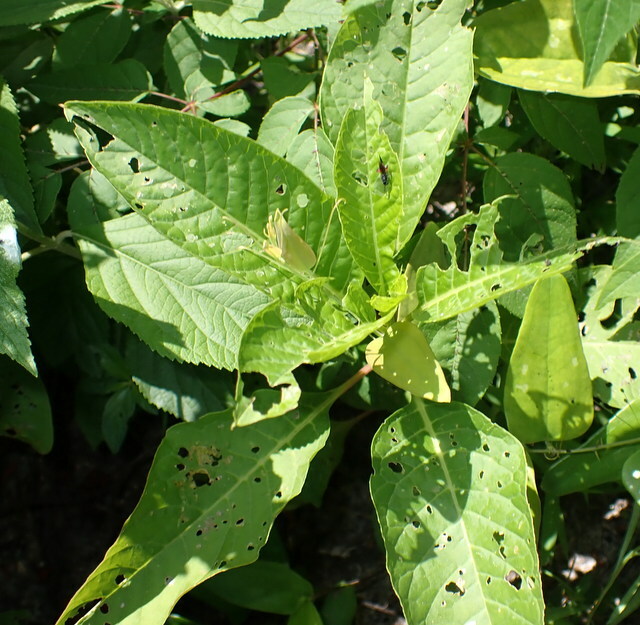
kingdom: Plantae
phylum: Tracheophyta
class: Magnoliopsida
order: Caryophyllales
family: Phytolaccaceae
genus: Phytolacca
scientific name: Phytolacca americana
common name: American pokeweed
